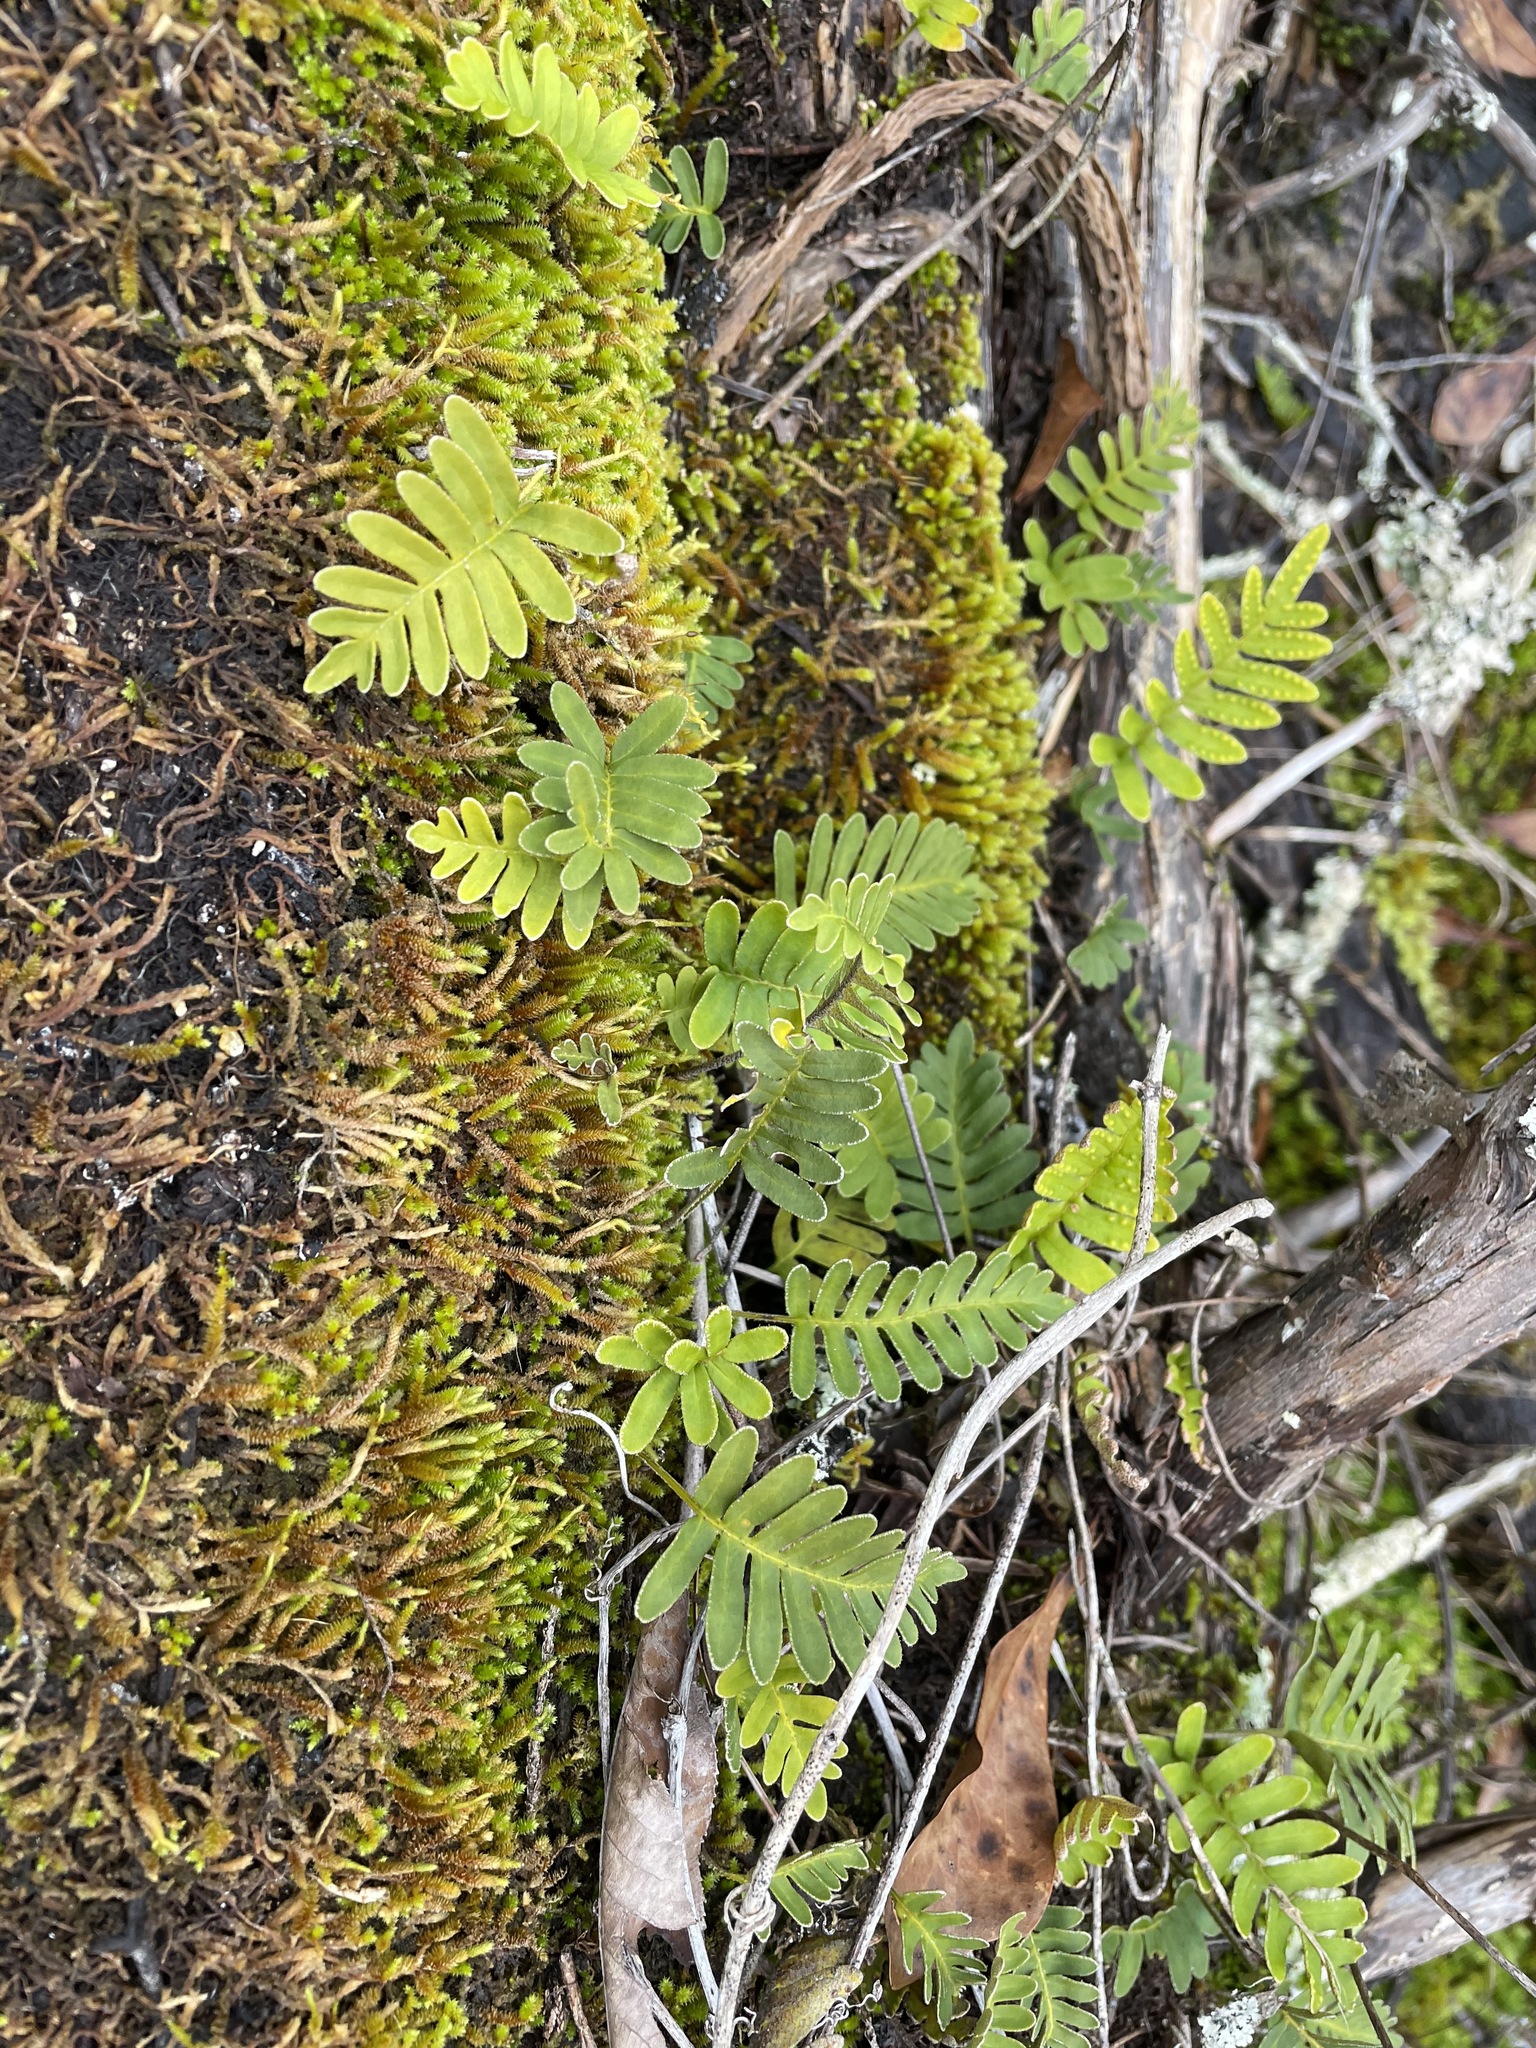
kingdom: Plantae
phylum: Tracheophyta
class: Polypodiopsida
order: Polypodiales
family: Polypodiaceae
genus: Pleopeltis
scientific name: Pleopeltis michauxiana
